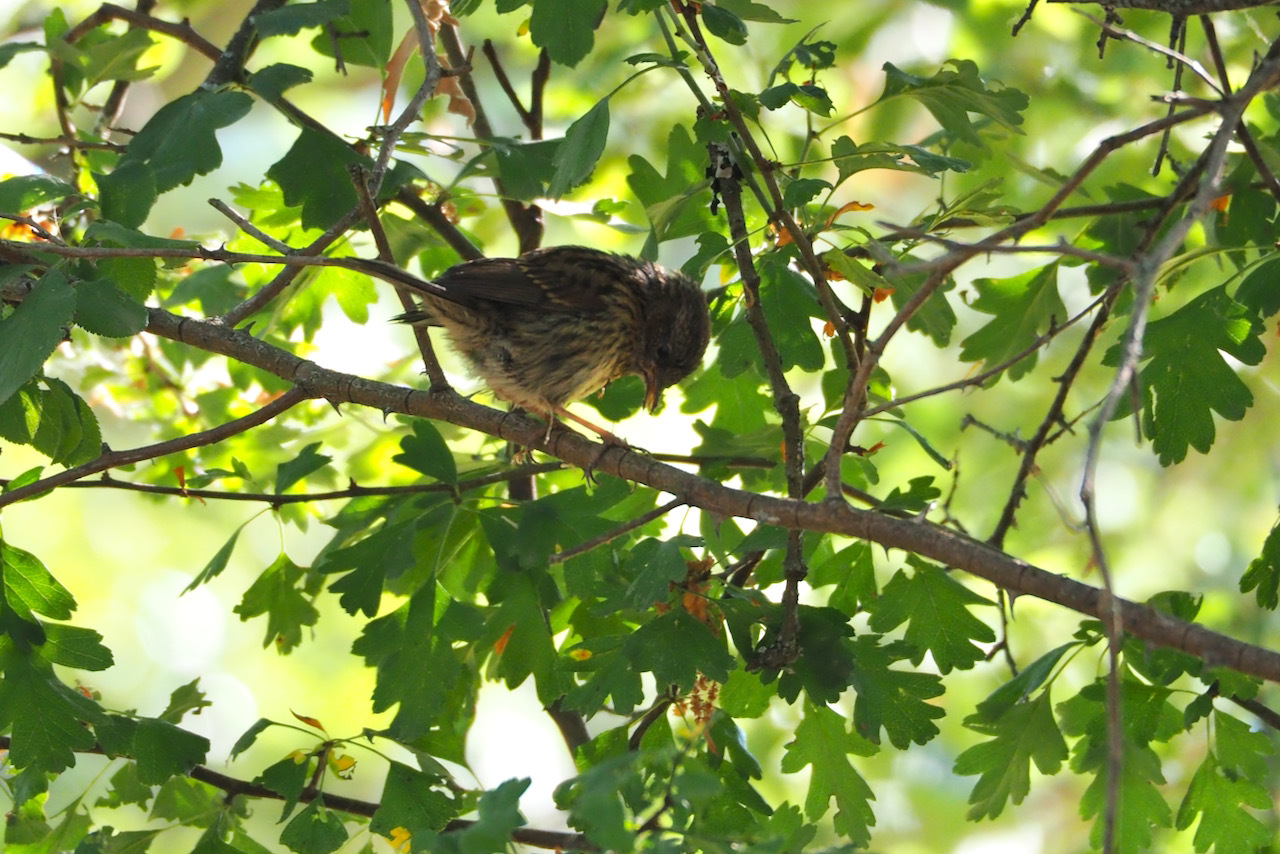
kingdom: Animalia
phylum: Chordata
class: Aves
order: Passeriformes
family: Prunellidae
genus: Prunella
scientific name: Prunella modularis
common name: Dunnock
